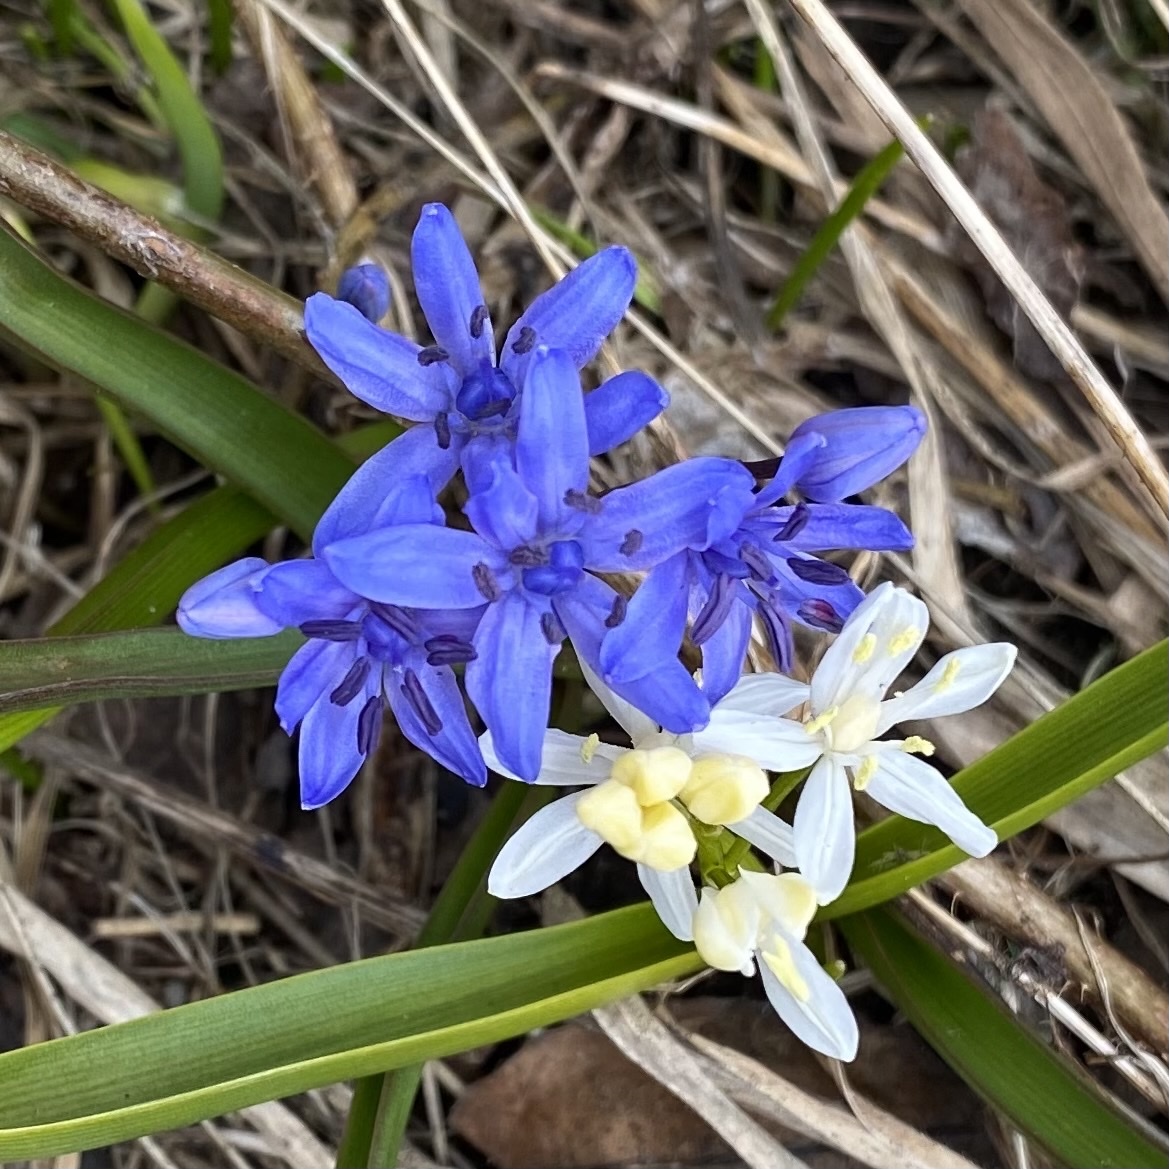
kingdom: Plantae
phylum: Tracheophyta
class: Liliopsida
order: Asparagales
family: Asparagaceae
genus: Scilla
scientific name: Scilla bifolia
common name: Alpine squill
